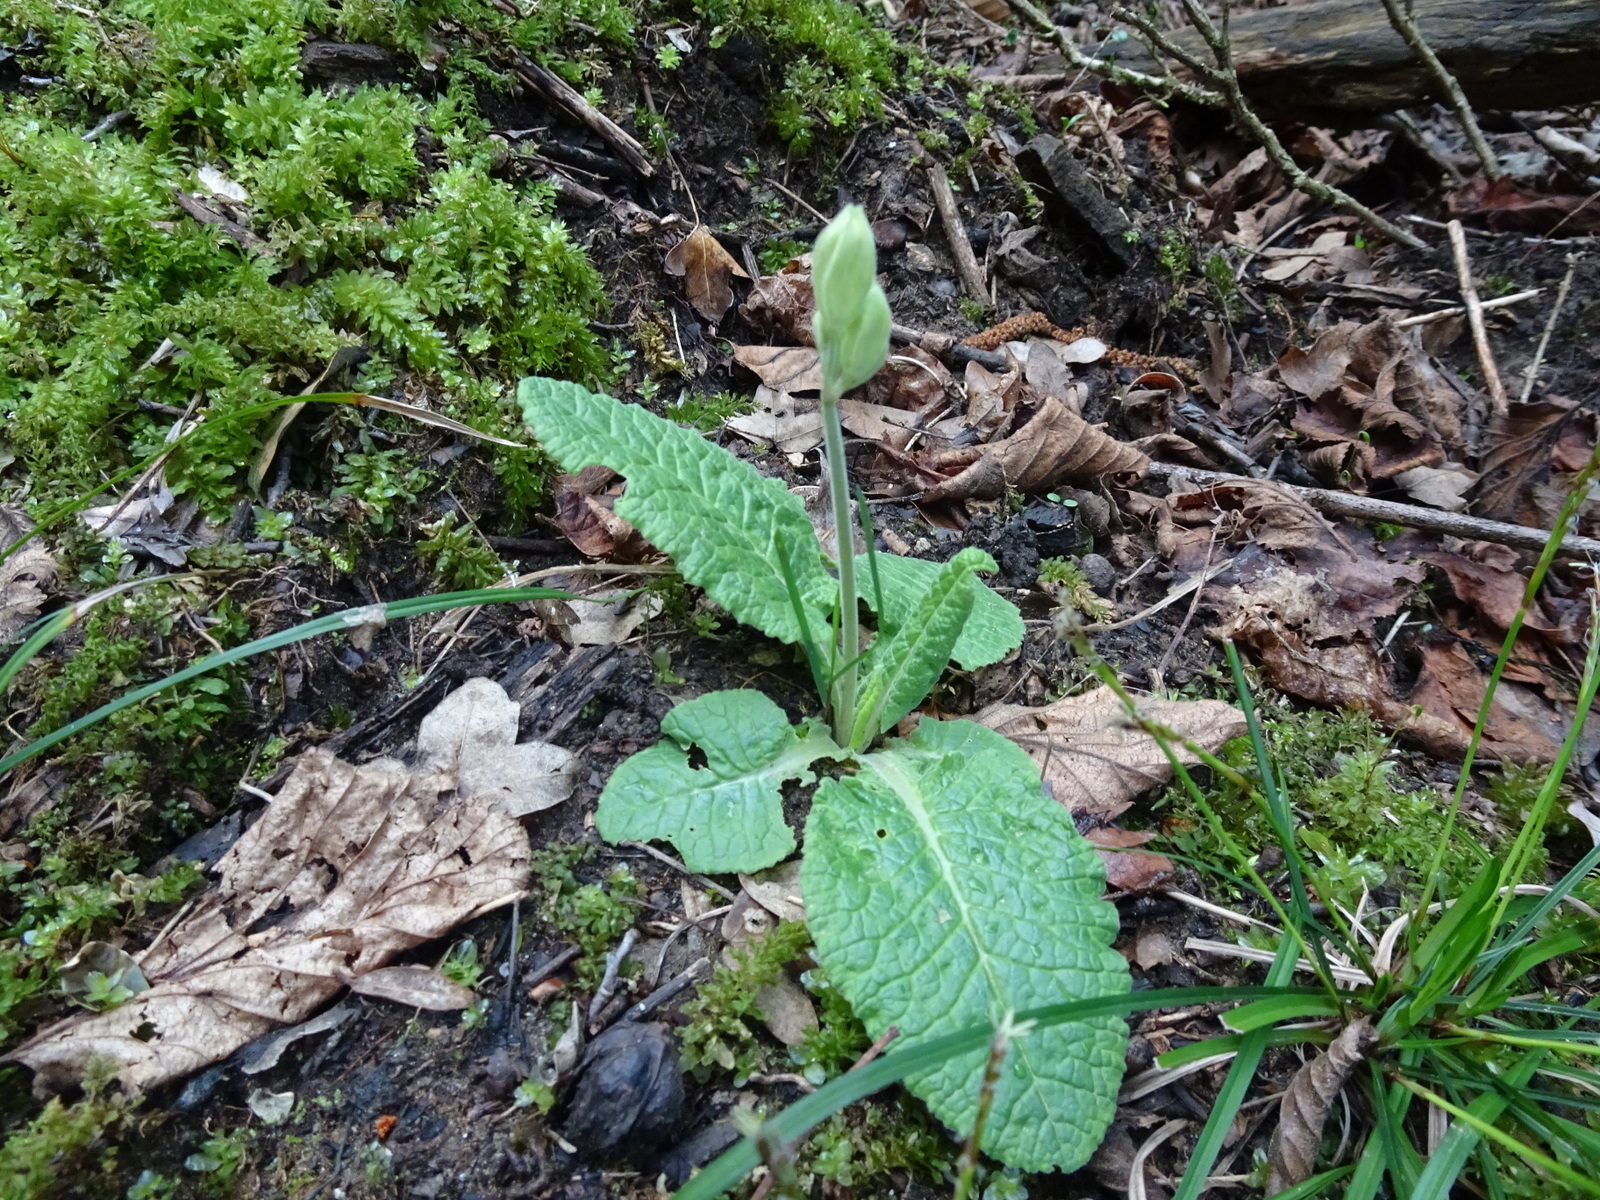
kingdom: Plantae
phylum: Tracheophyta
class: Magnoliopsida
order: Ericales
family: Primulaceae
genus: Primula
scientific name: Primula veris
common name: Cowslip
